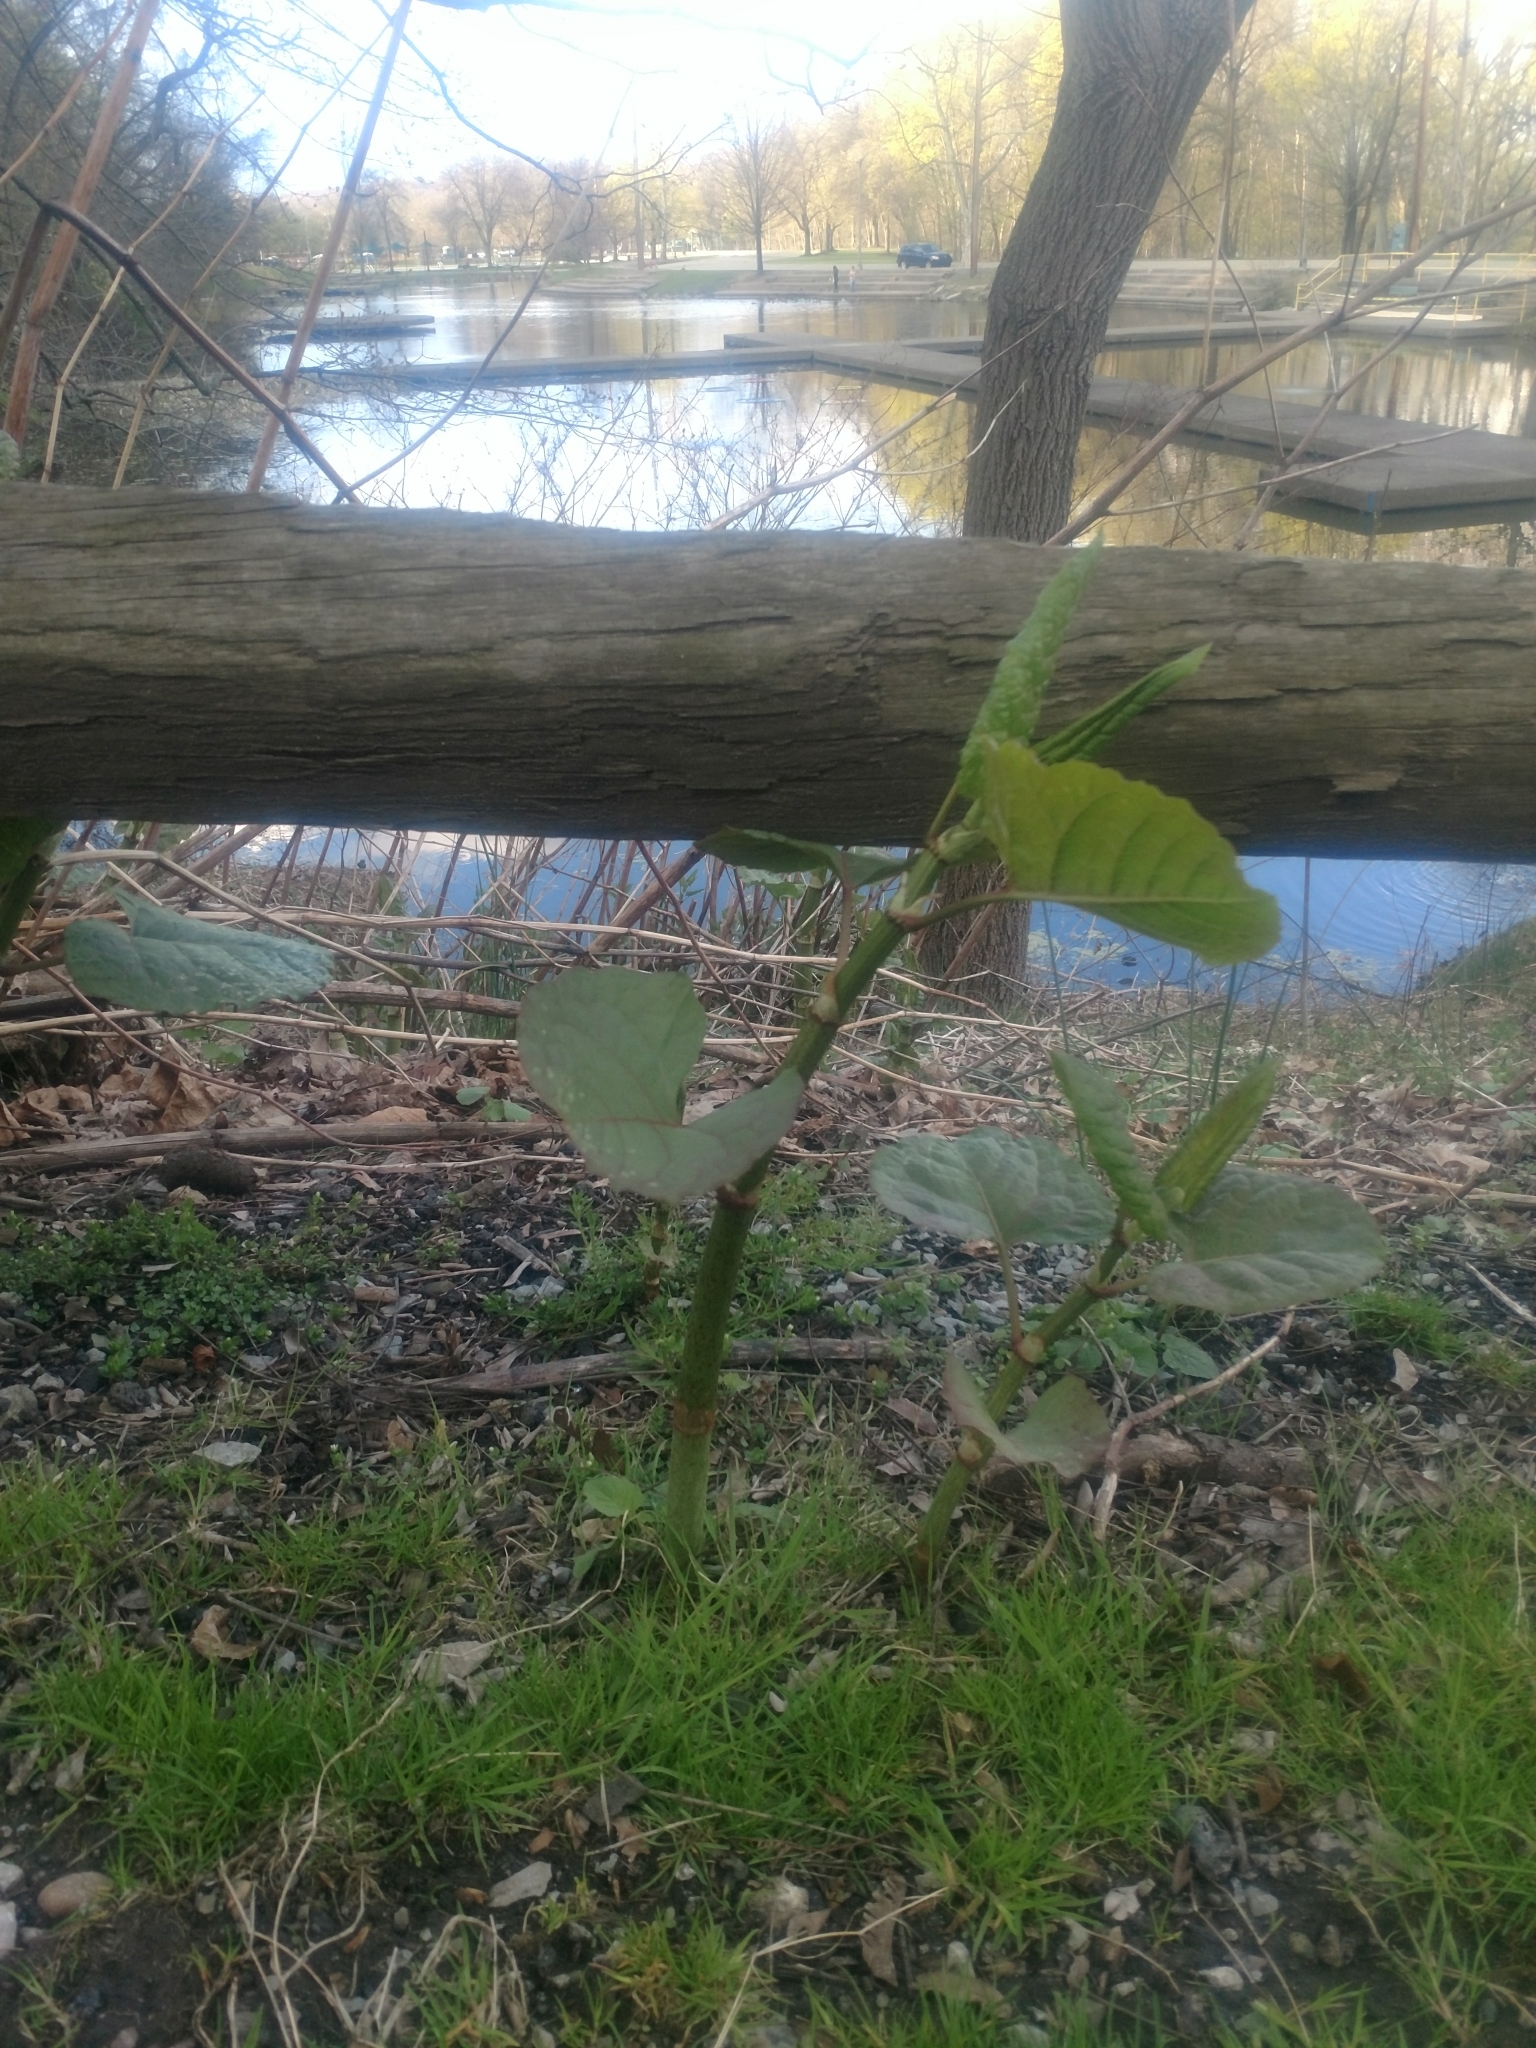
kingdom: Plantae
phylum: Tracheophyta
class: Magnoliopsida
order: Caryophyllales
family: Polygonaceae
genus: Reynoutria
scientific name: Reynoutria japonica
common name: Japanese knotweed
